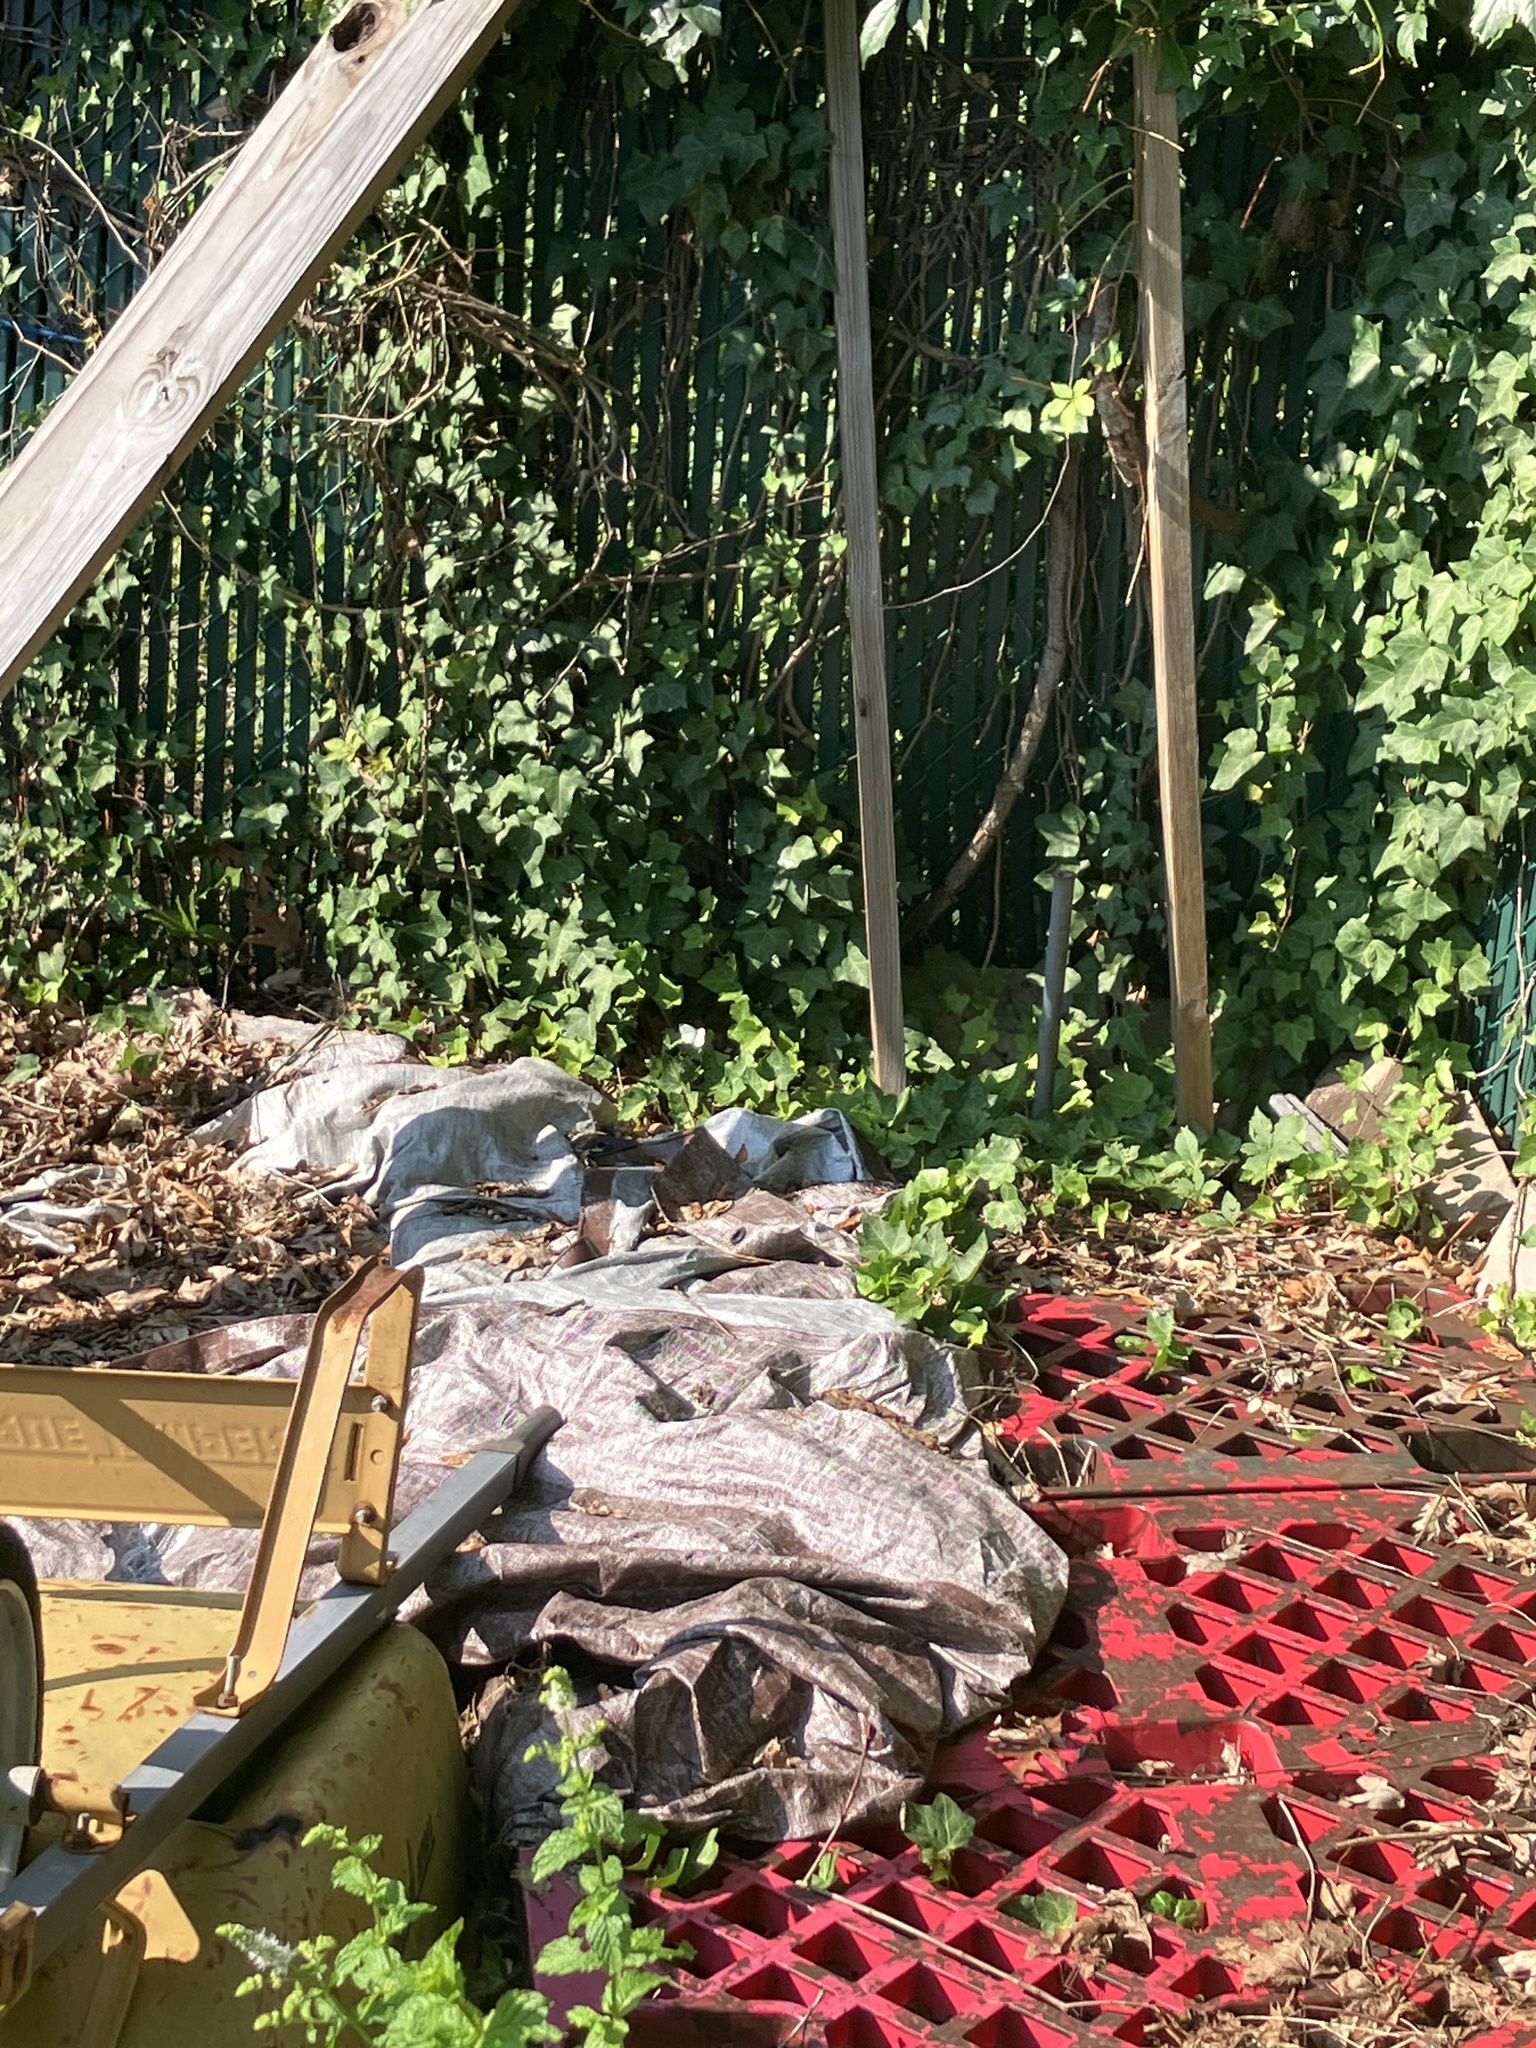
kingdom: Animalia
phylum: Arthropoda
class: Insecta
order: Lepidoptera
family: Pieridae
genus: Pieris
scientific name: Pieris rapae
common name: Small white
